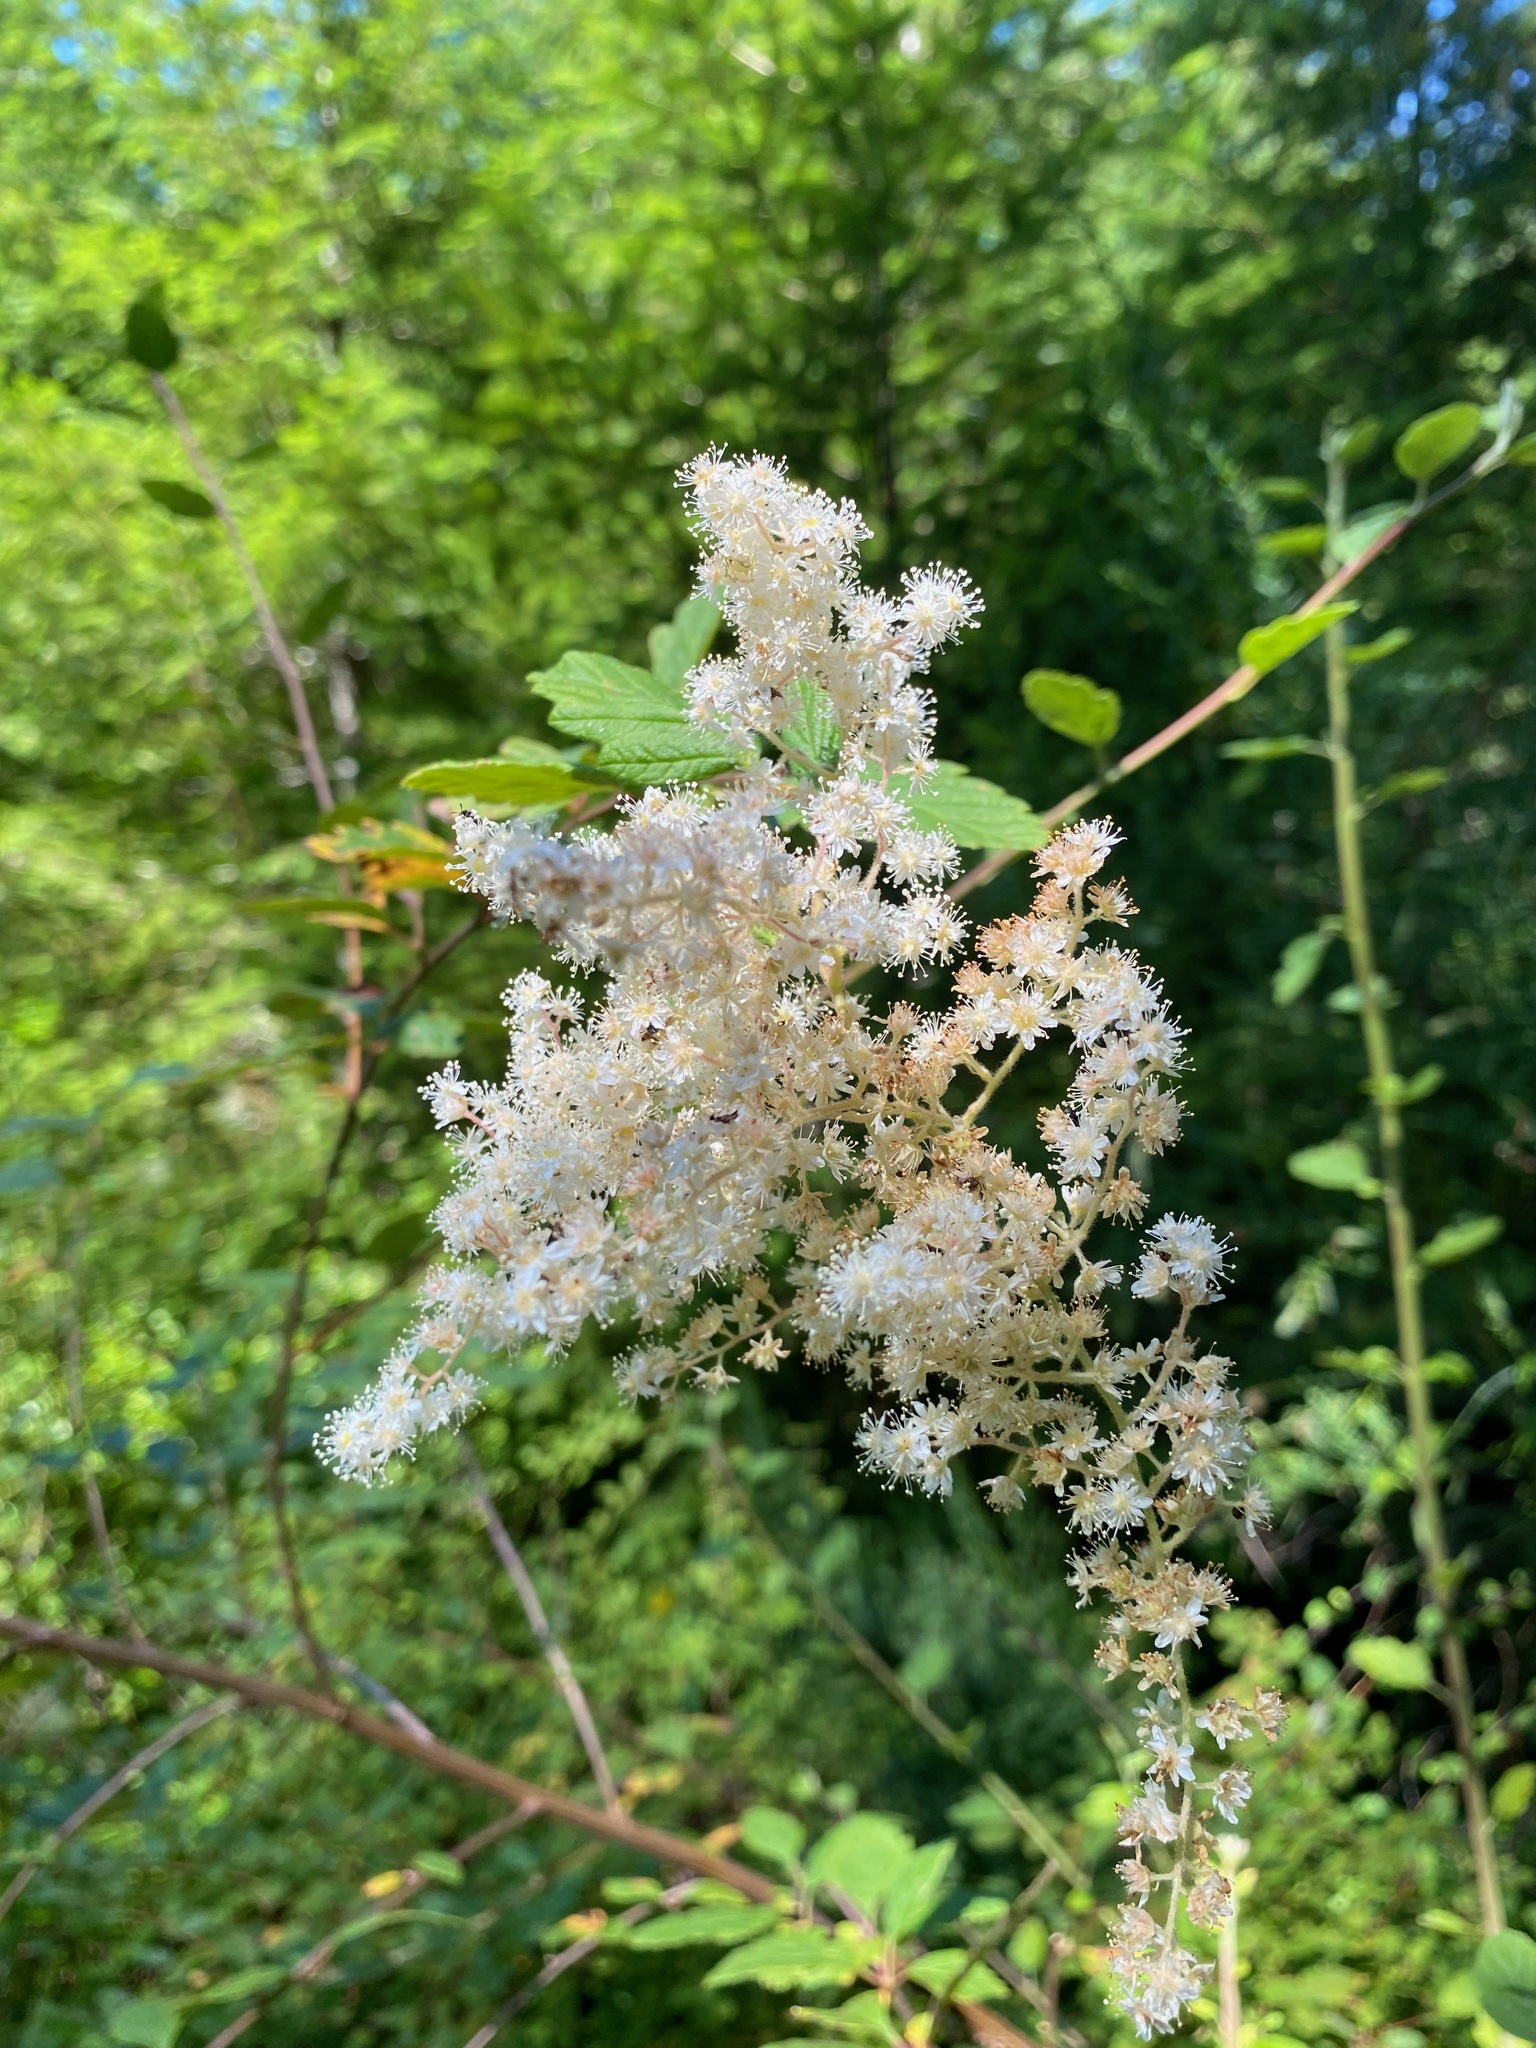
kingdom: Plantae
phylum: Tracheophyta
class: Magnoliopsida
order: Rosales
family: Rosaceae
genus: Holodiscus
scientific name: Holodiscus discolor
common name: Oceanspray
